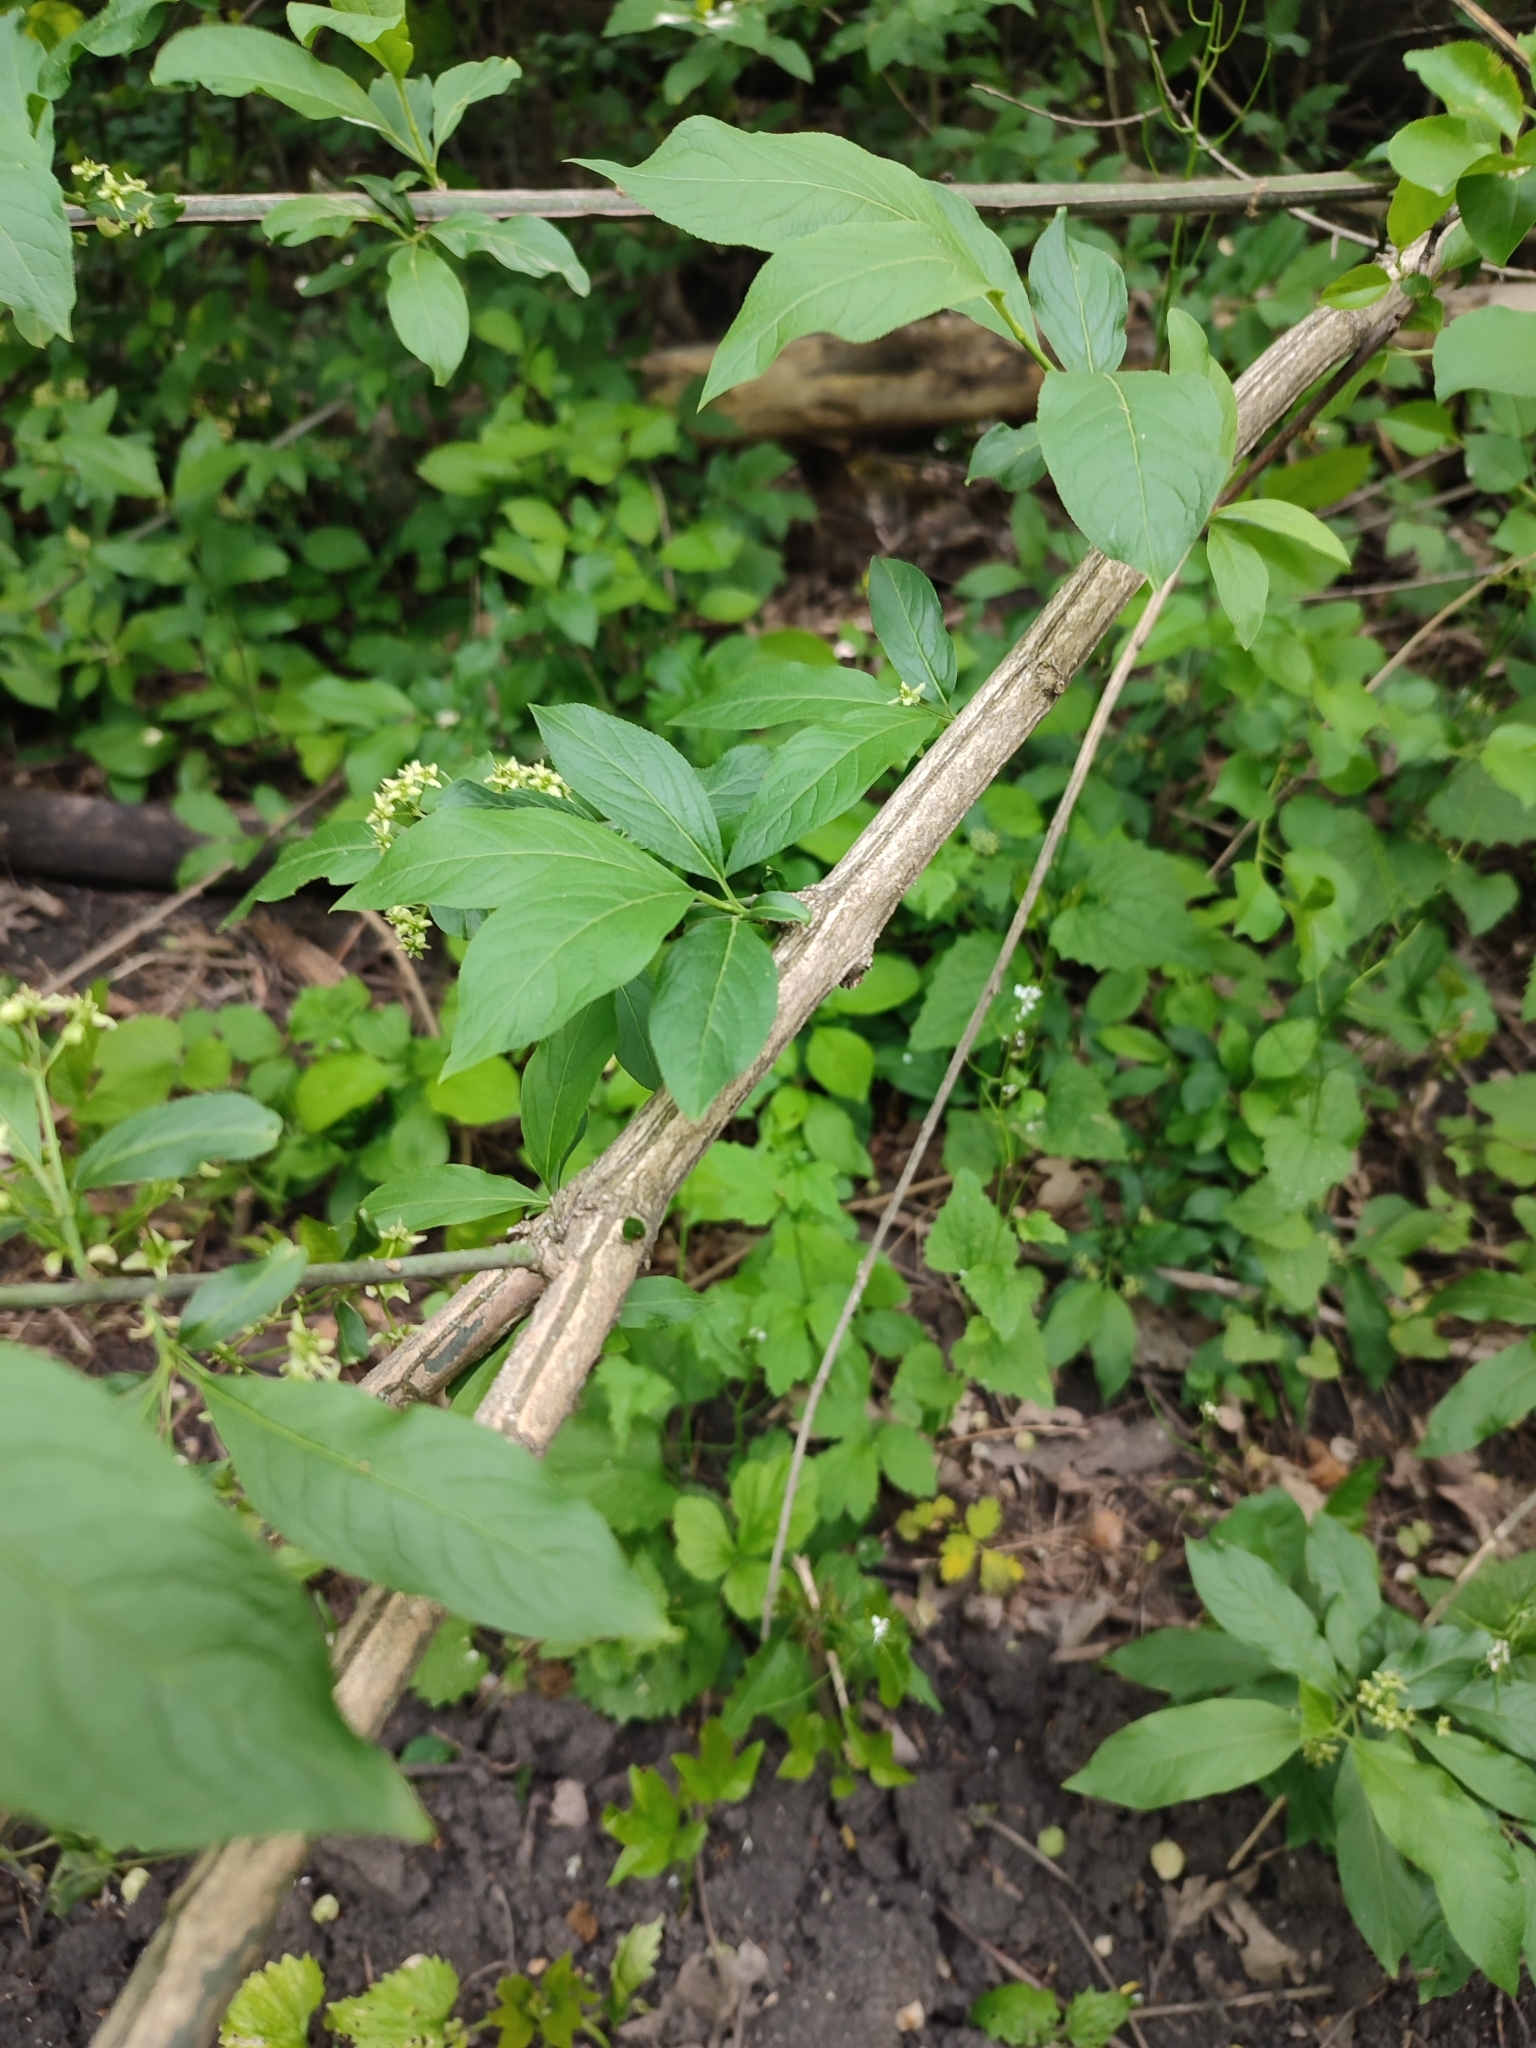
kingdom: Plantae
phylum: Tracheophyta
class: Magnoliopsida
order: Celastrales
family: Celastraceae
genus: Euonymus
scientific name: Euonymus europaeus
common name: Spindle
